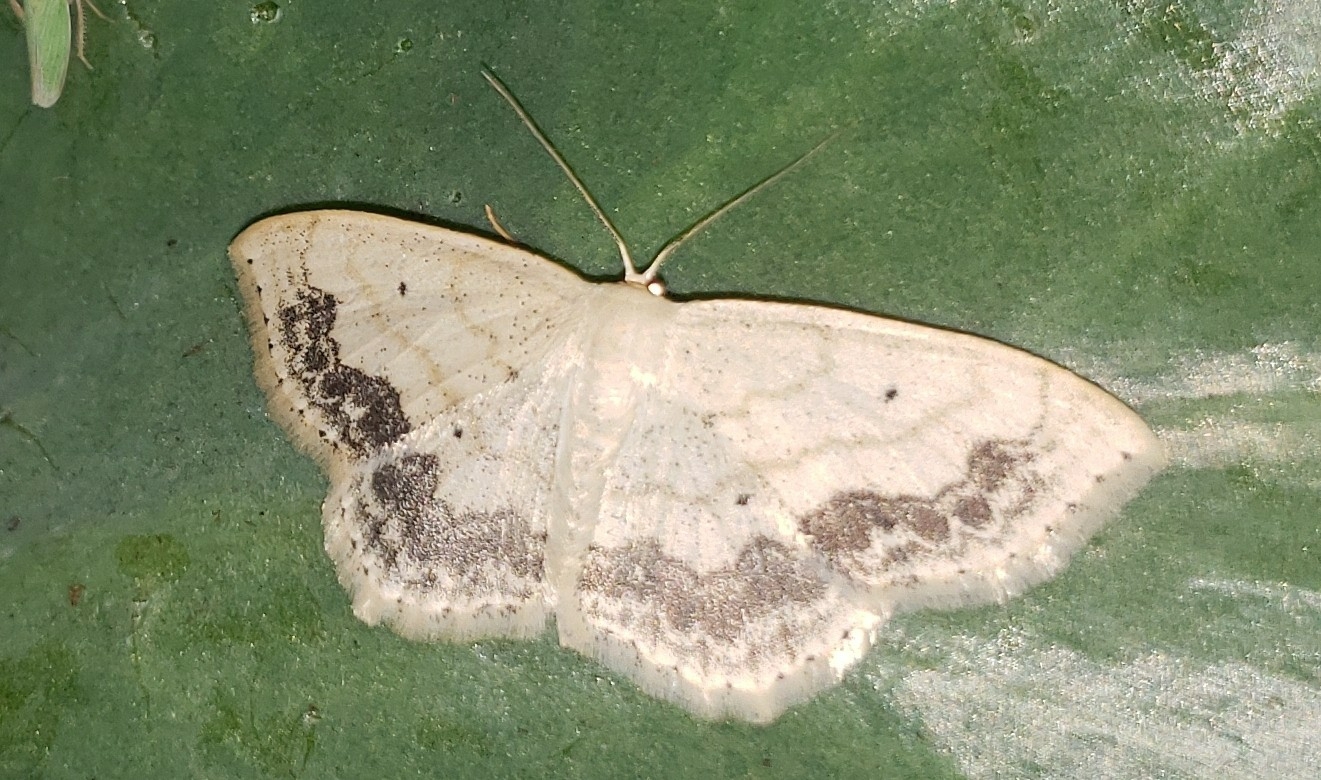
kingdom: Animalia
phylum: Arthropoda
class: Insecta
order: Lepidoptera
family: Geometridae
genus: Scopula
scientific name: Scopula limboundata
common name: Large lace border
